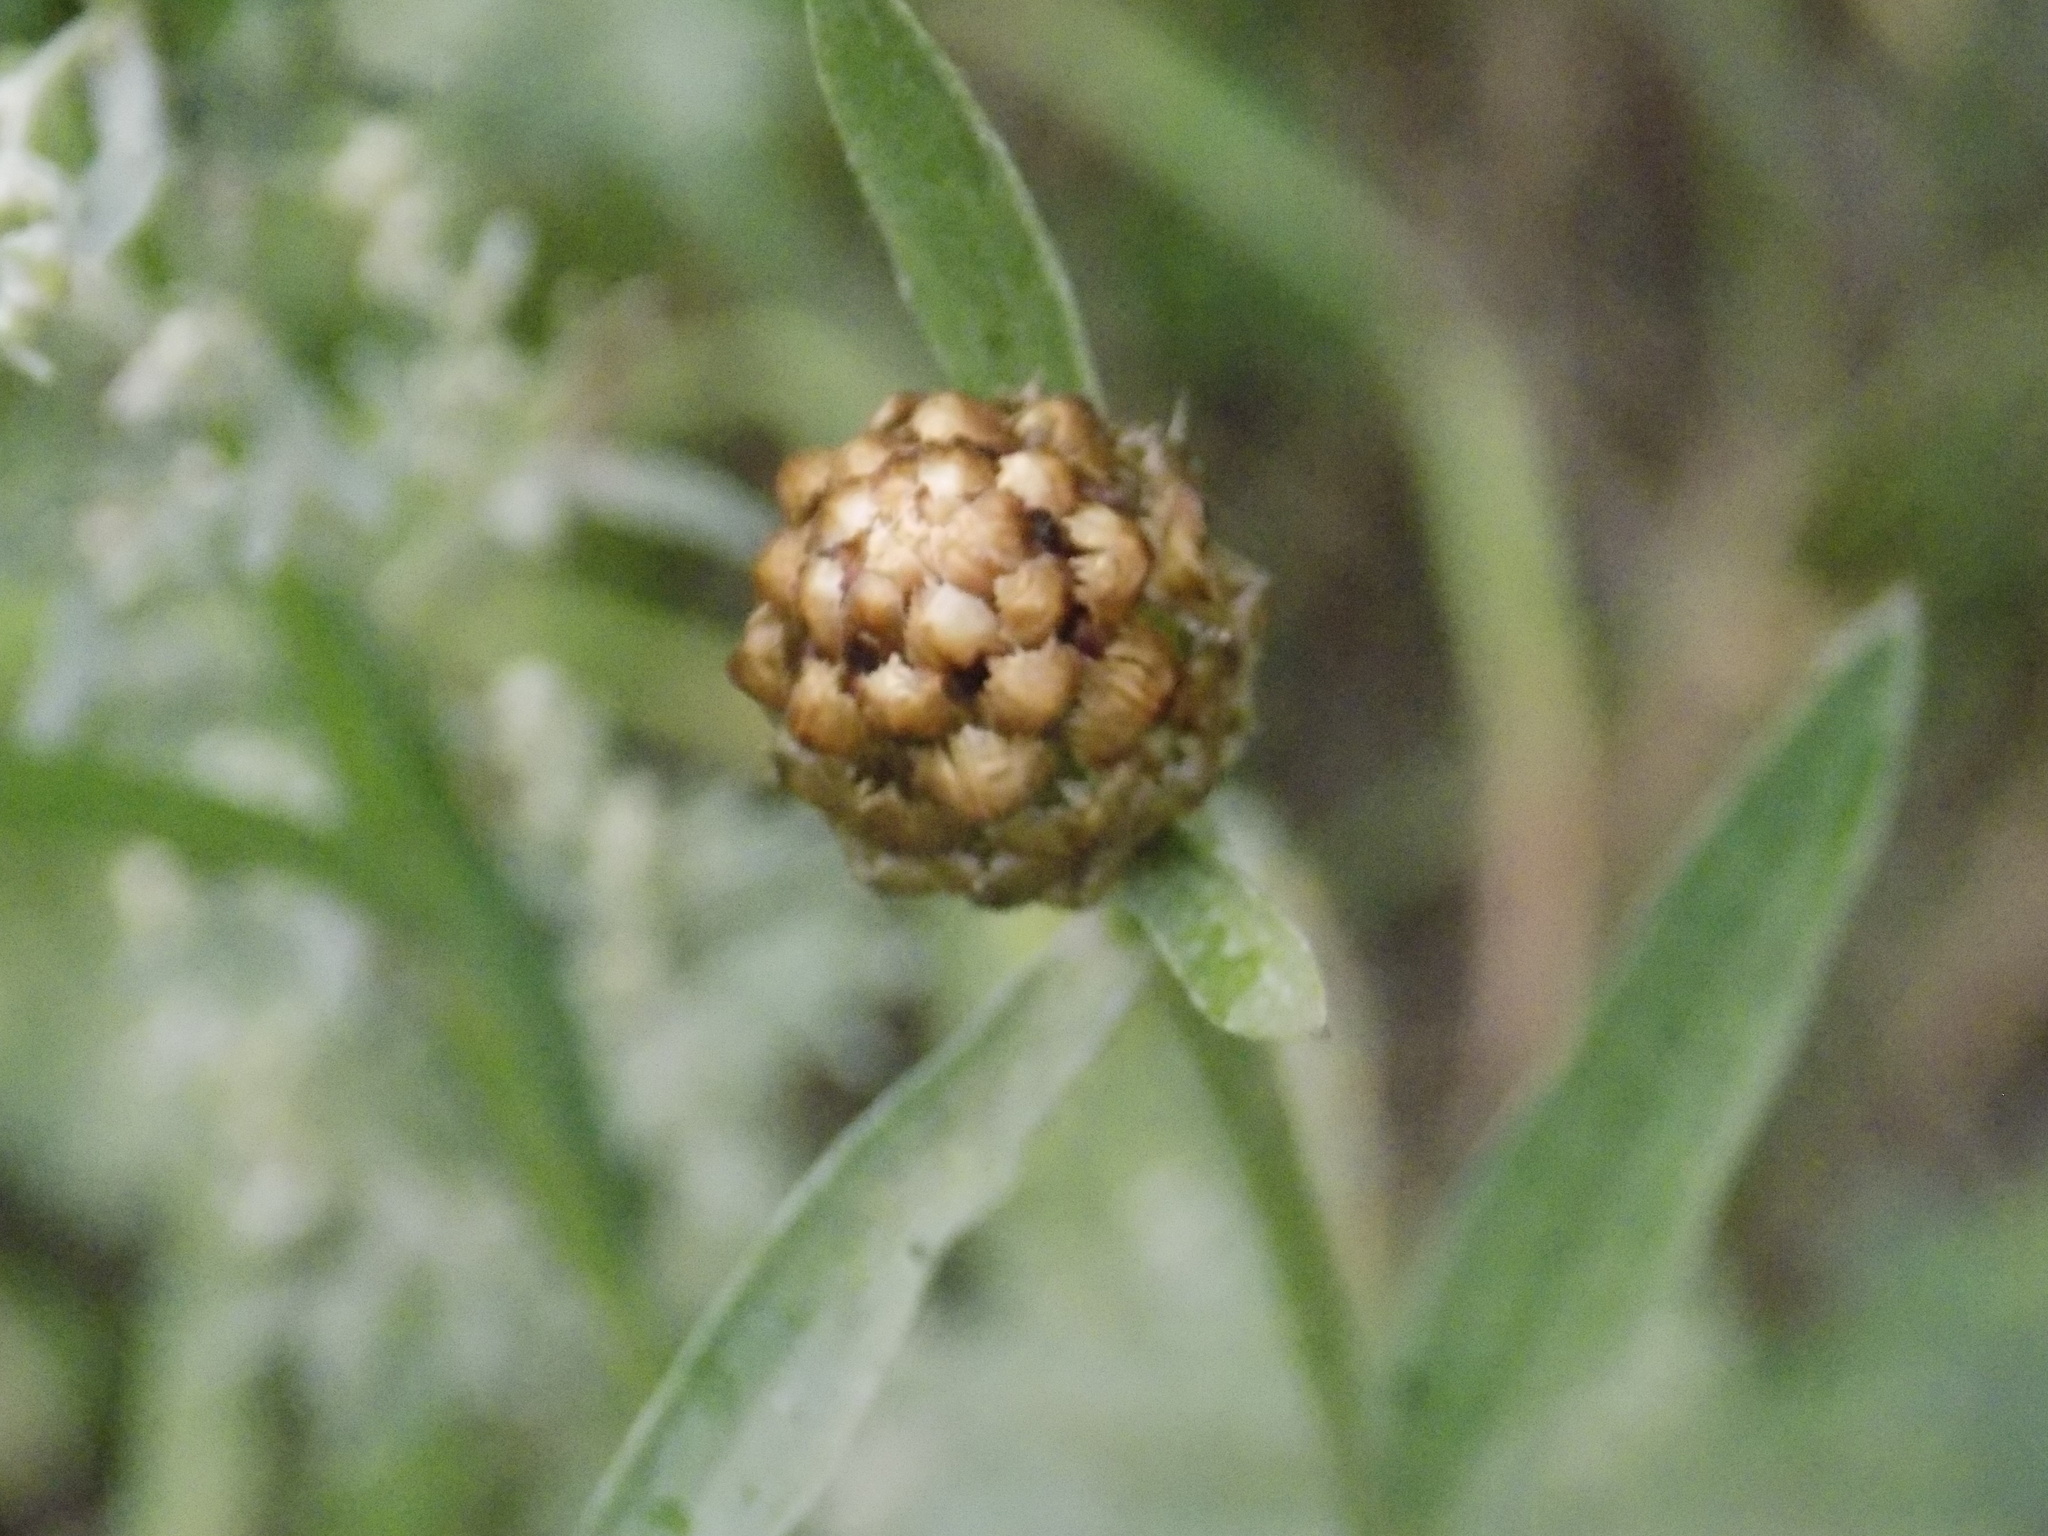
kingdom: Plantae
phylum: Tracheophyta
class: Magnoliopsida
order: Asterales
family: Asteraceae
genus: Centaurea
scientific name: Centaurea jacea
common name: Brown knapweed
